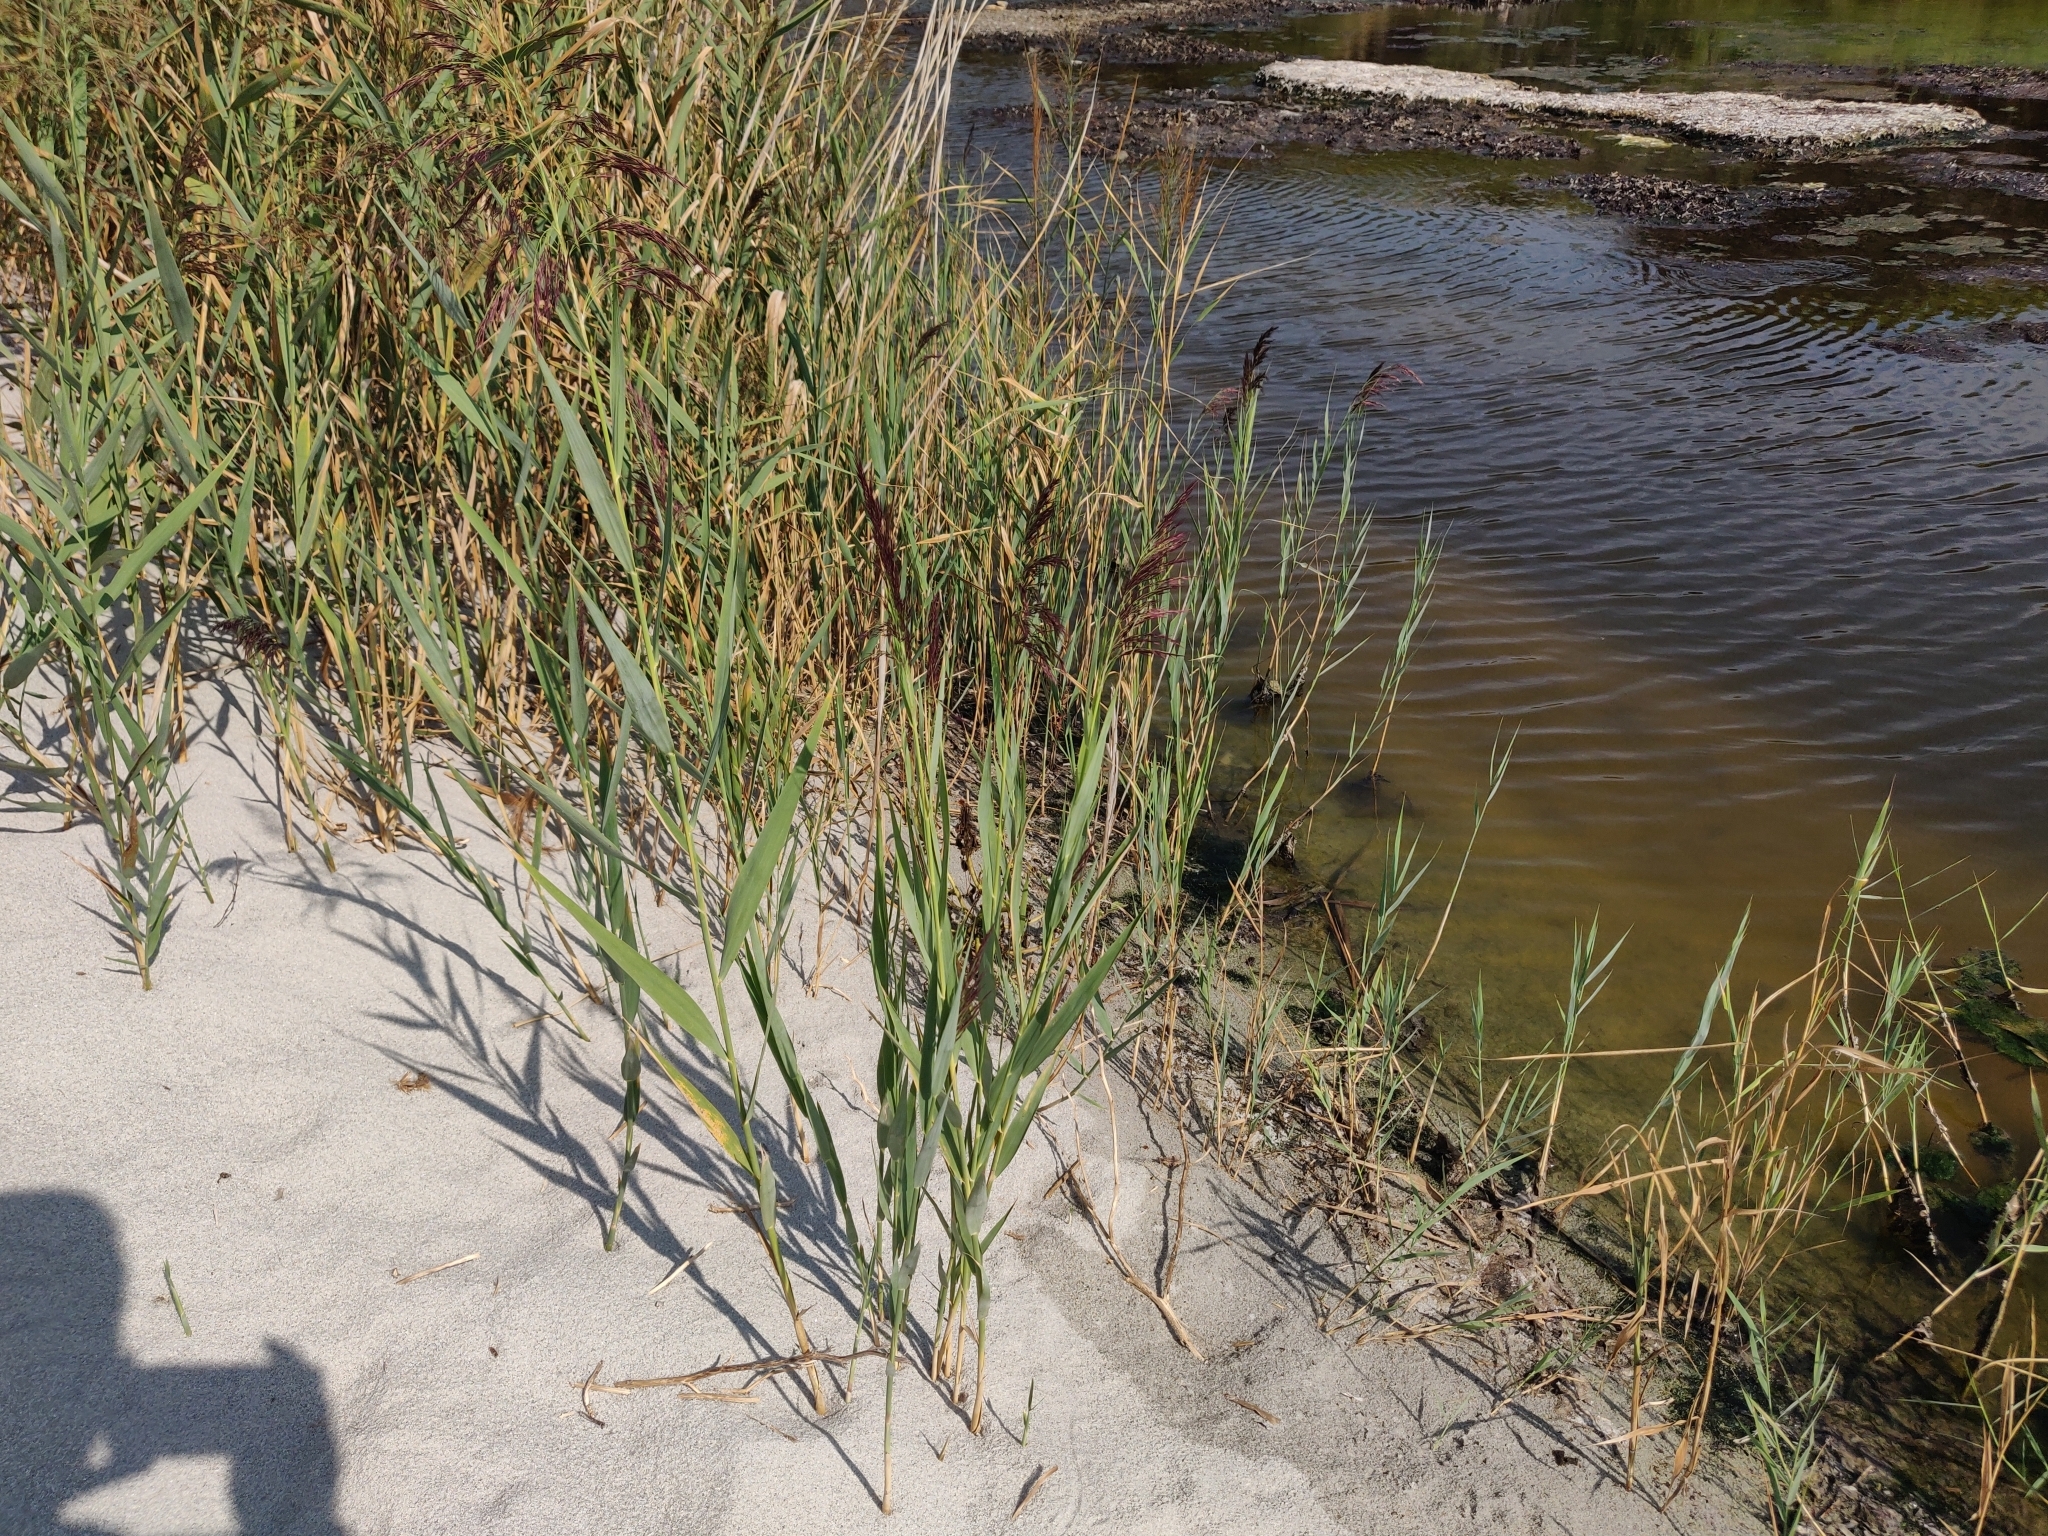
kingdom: Plantae
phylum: Tracheophyta
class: Liliopsida
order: Poales
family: Poaceae
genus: Phragmites
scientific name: Phragmites australis
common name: Common reed
